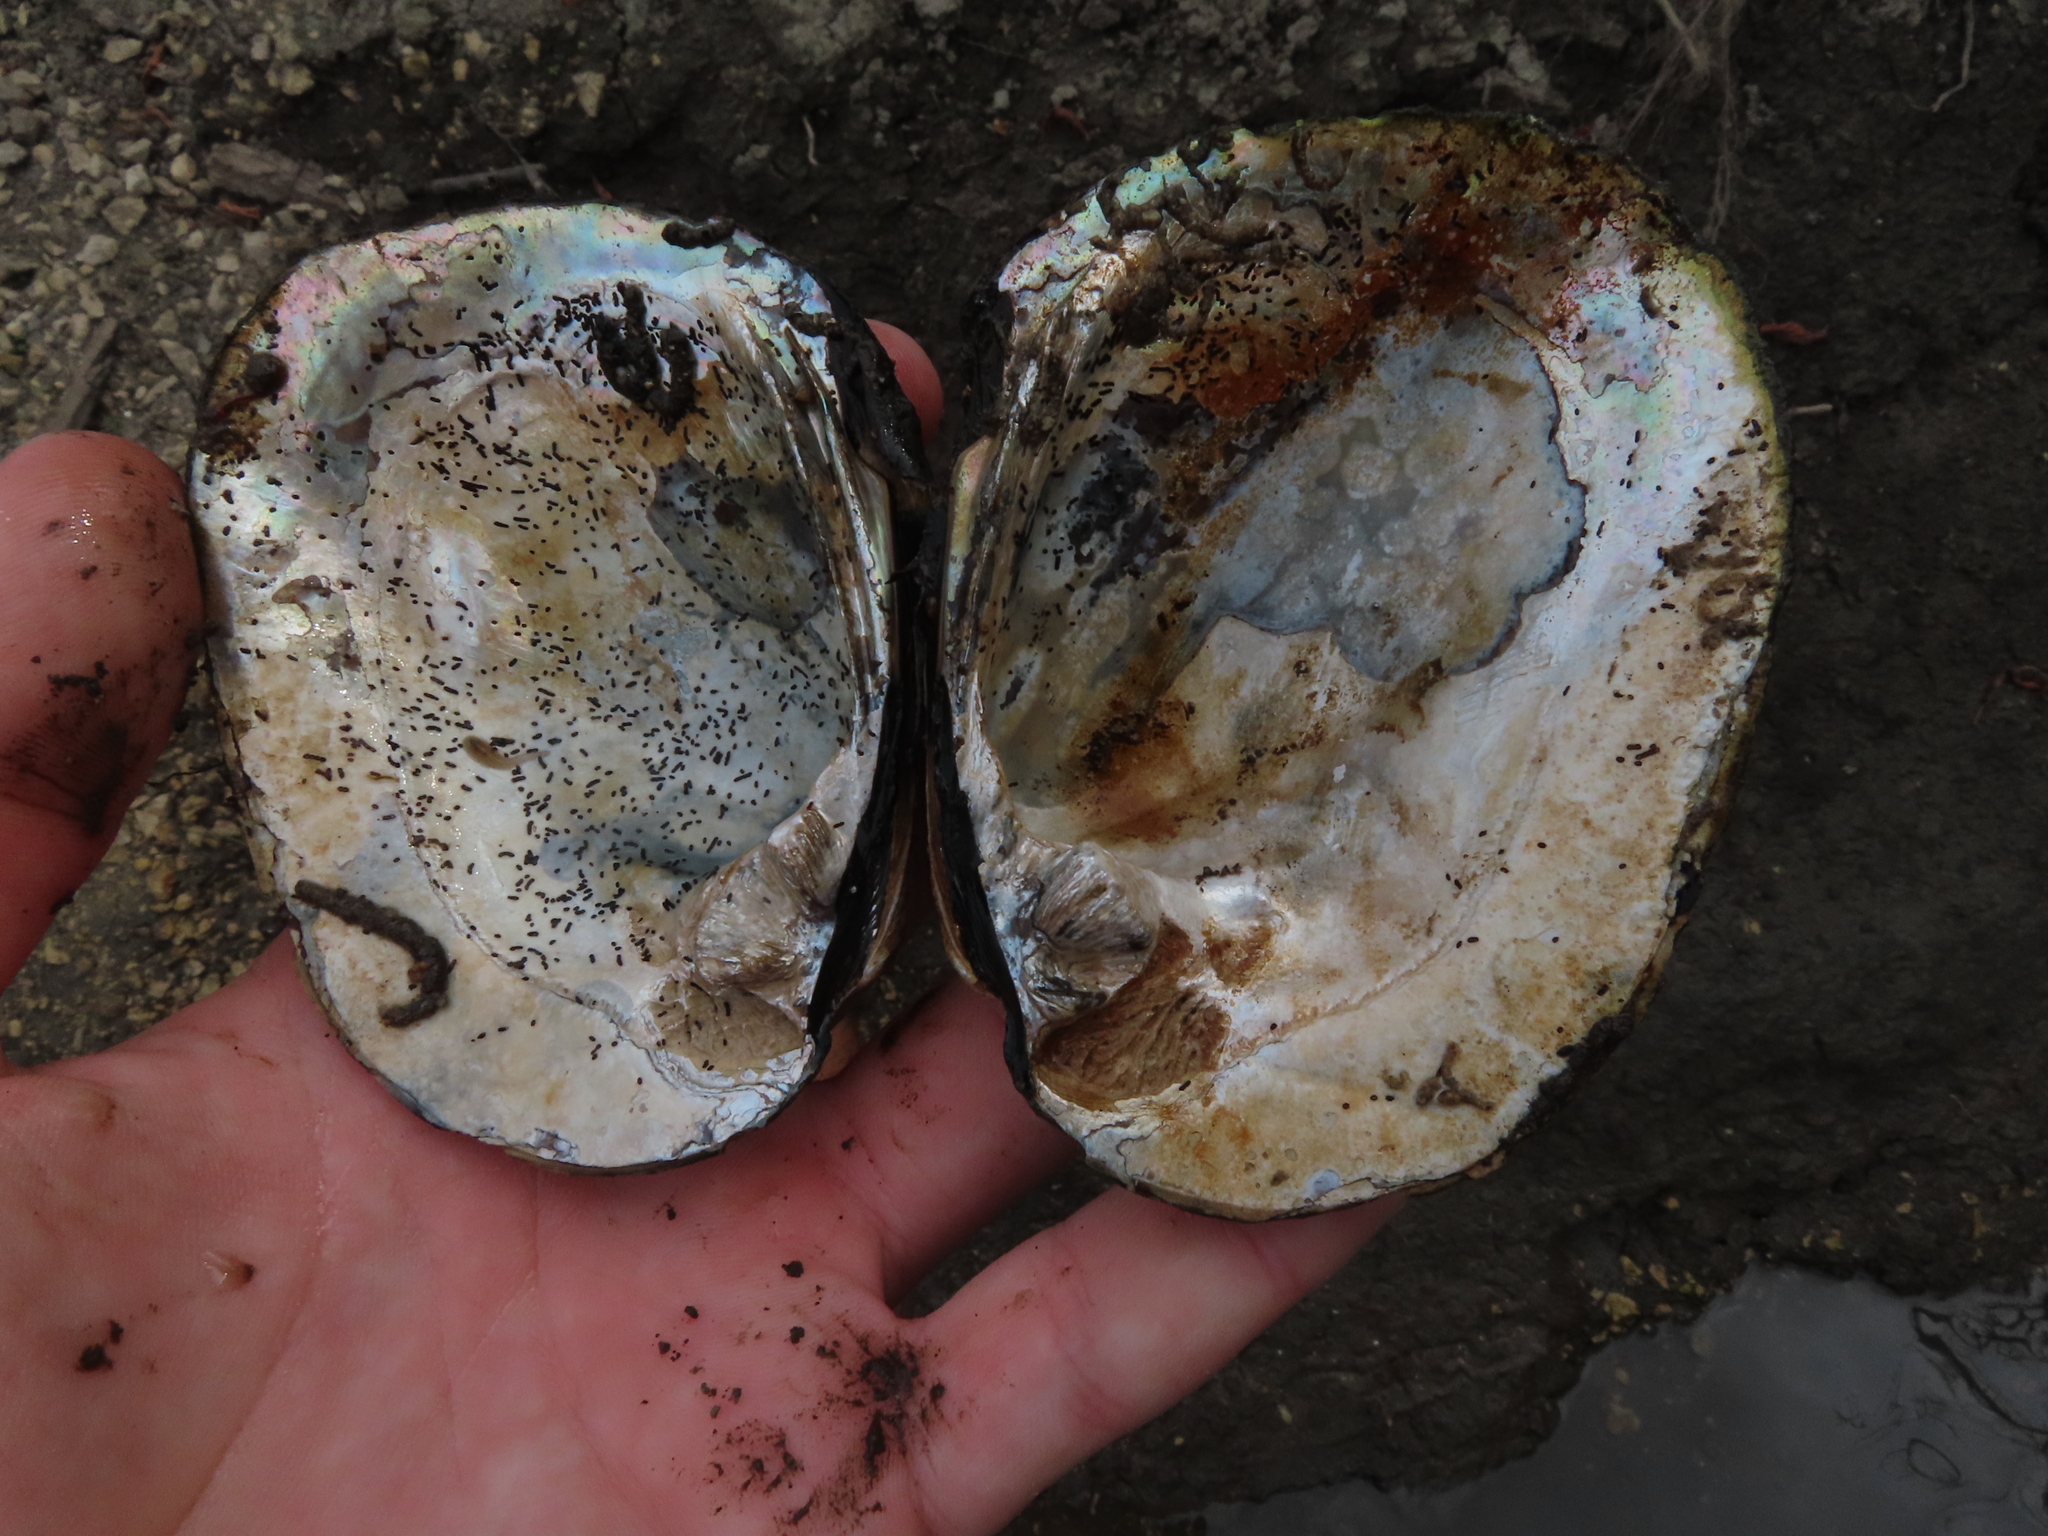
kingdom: Animalia
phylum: Mollusca
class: Bivalvia
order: Unionida
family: Unionidae
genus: Amblema
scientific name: Amblema plicata
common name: Threeridge
